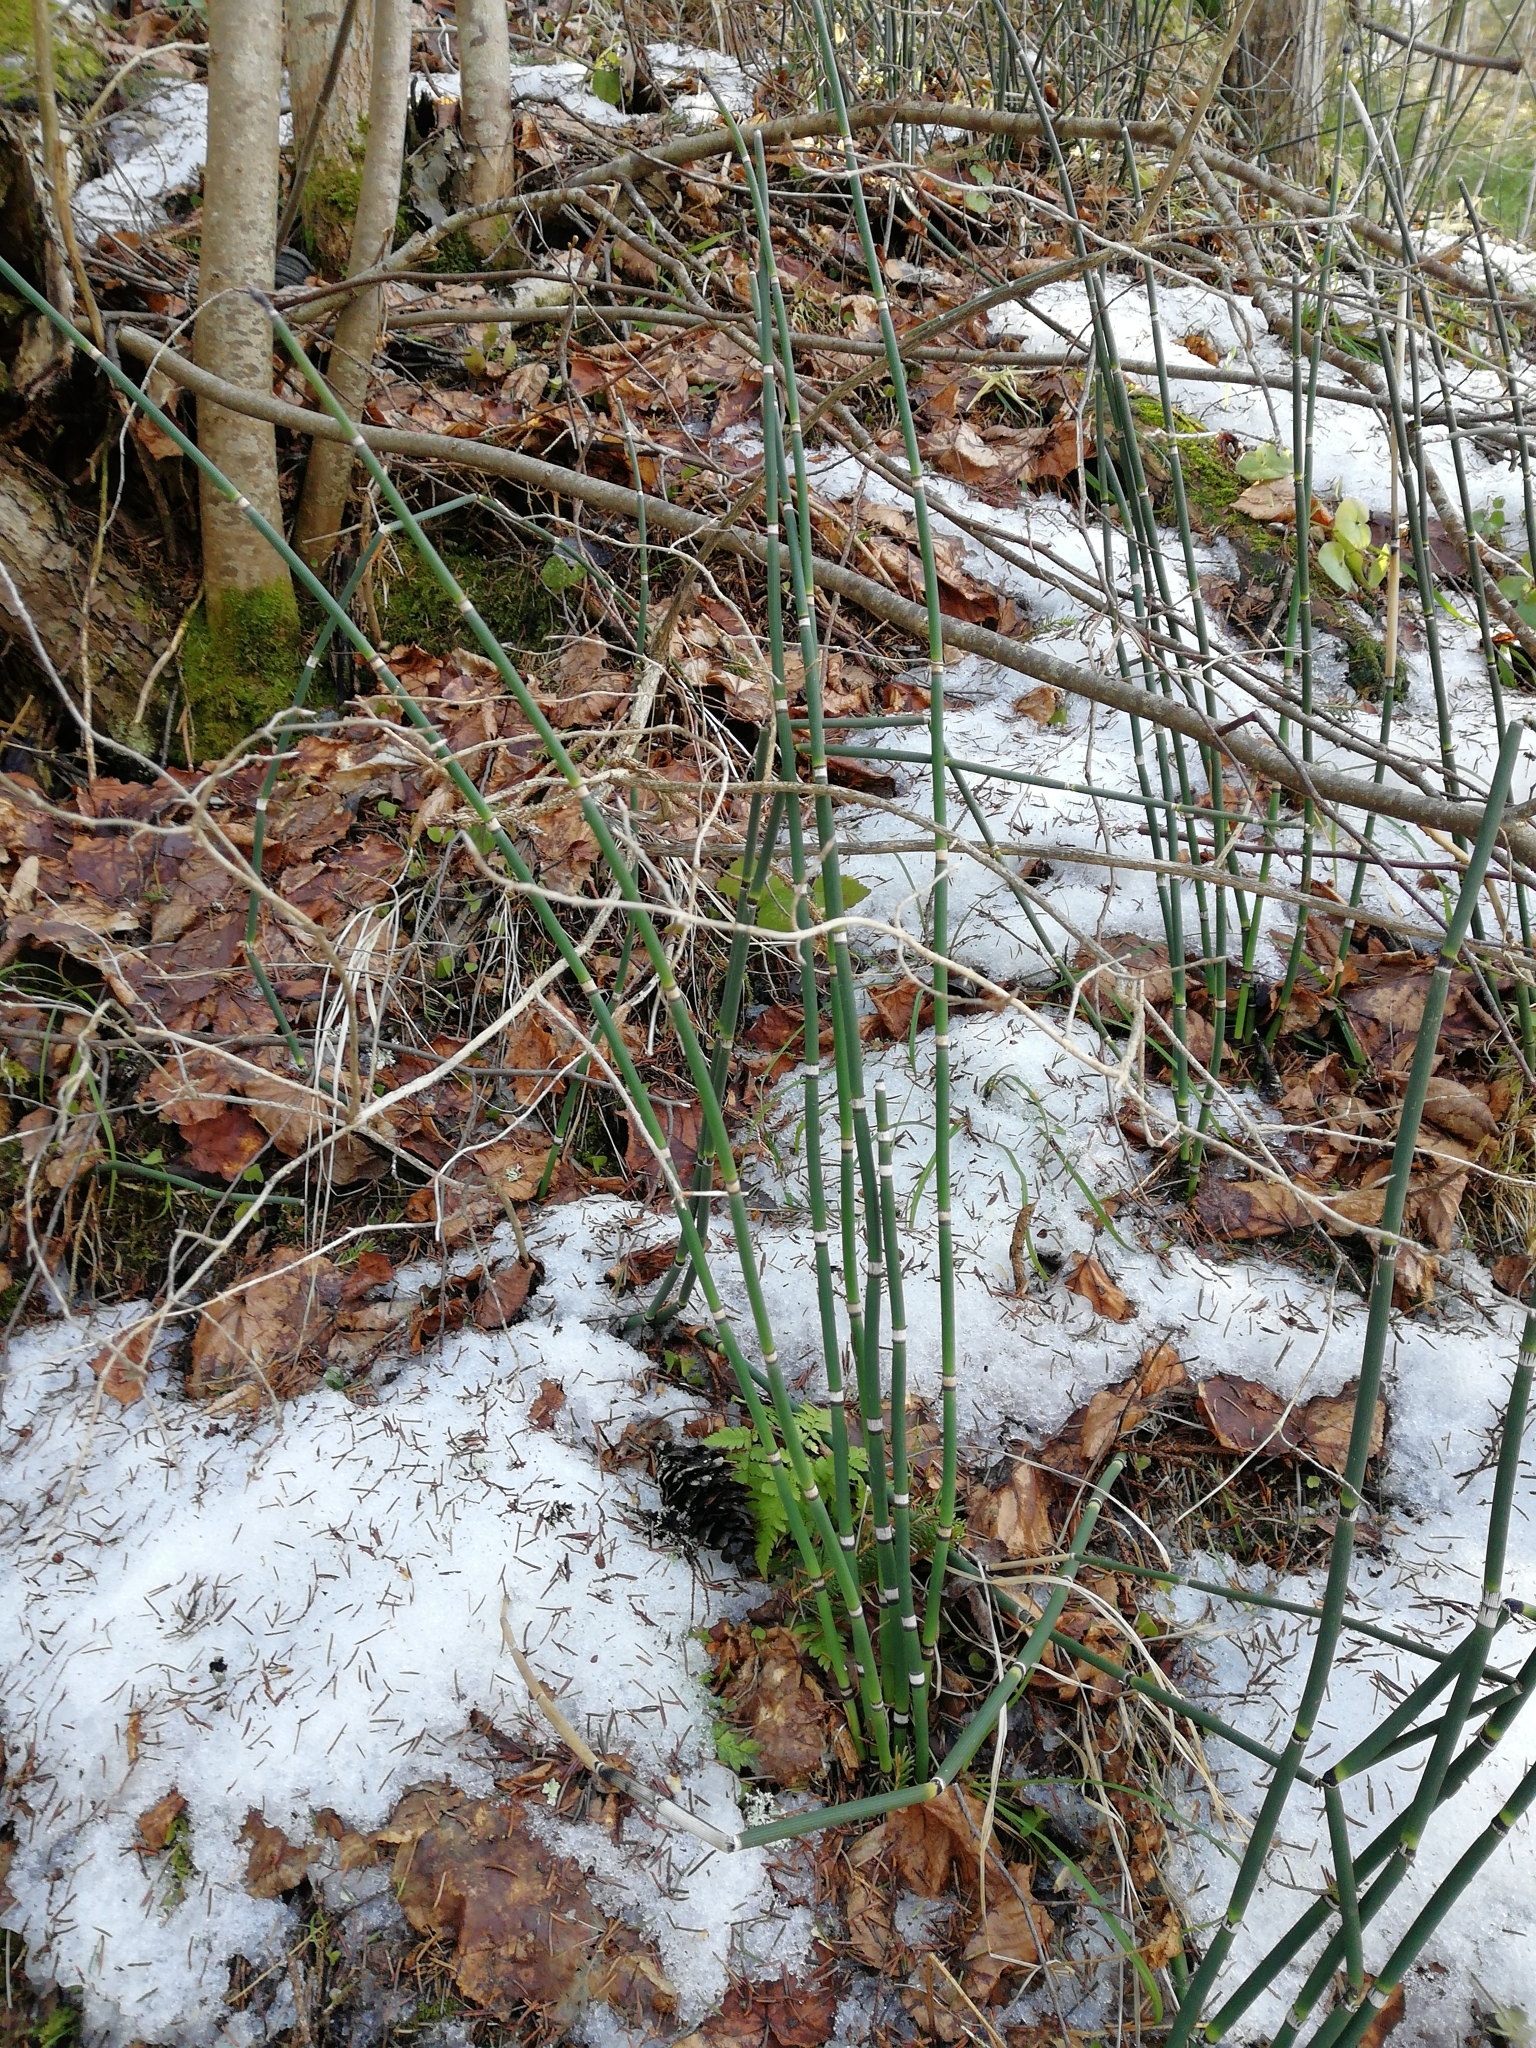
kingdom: Plantae
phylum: Tracheophyta
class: Polypodiopsida
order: Equisetales
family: Equisetaceae
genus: Equisetum
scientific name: Equisetum hyemale
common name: Rough horsetail
